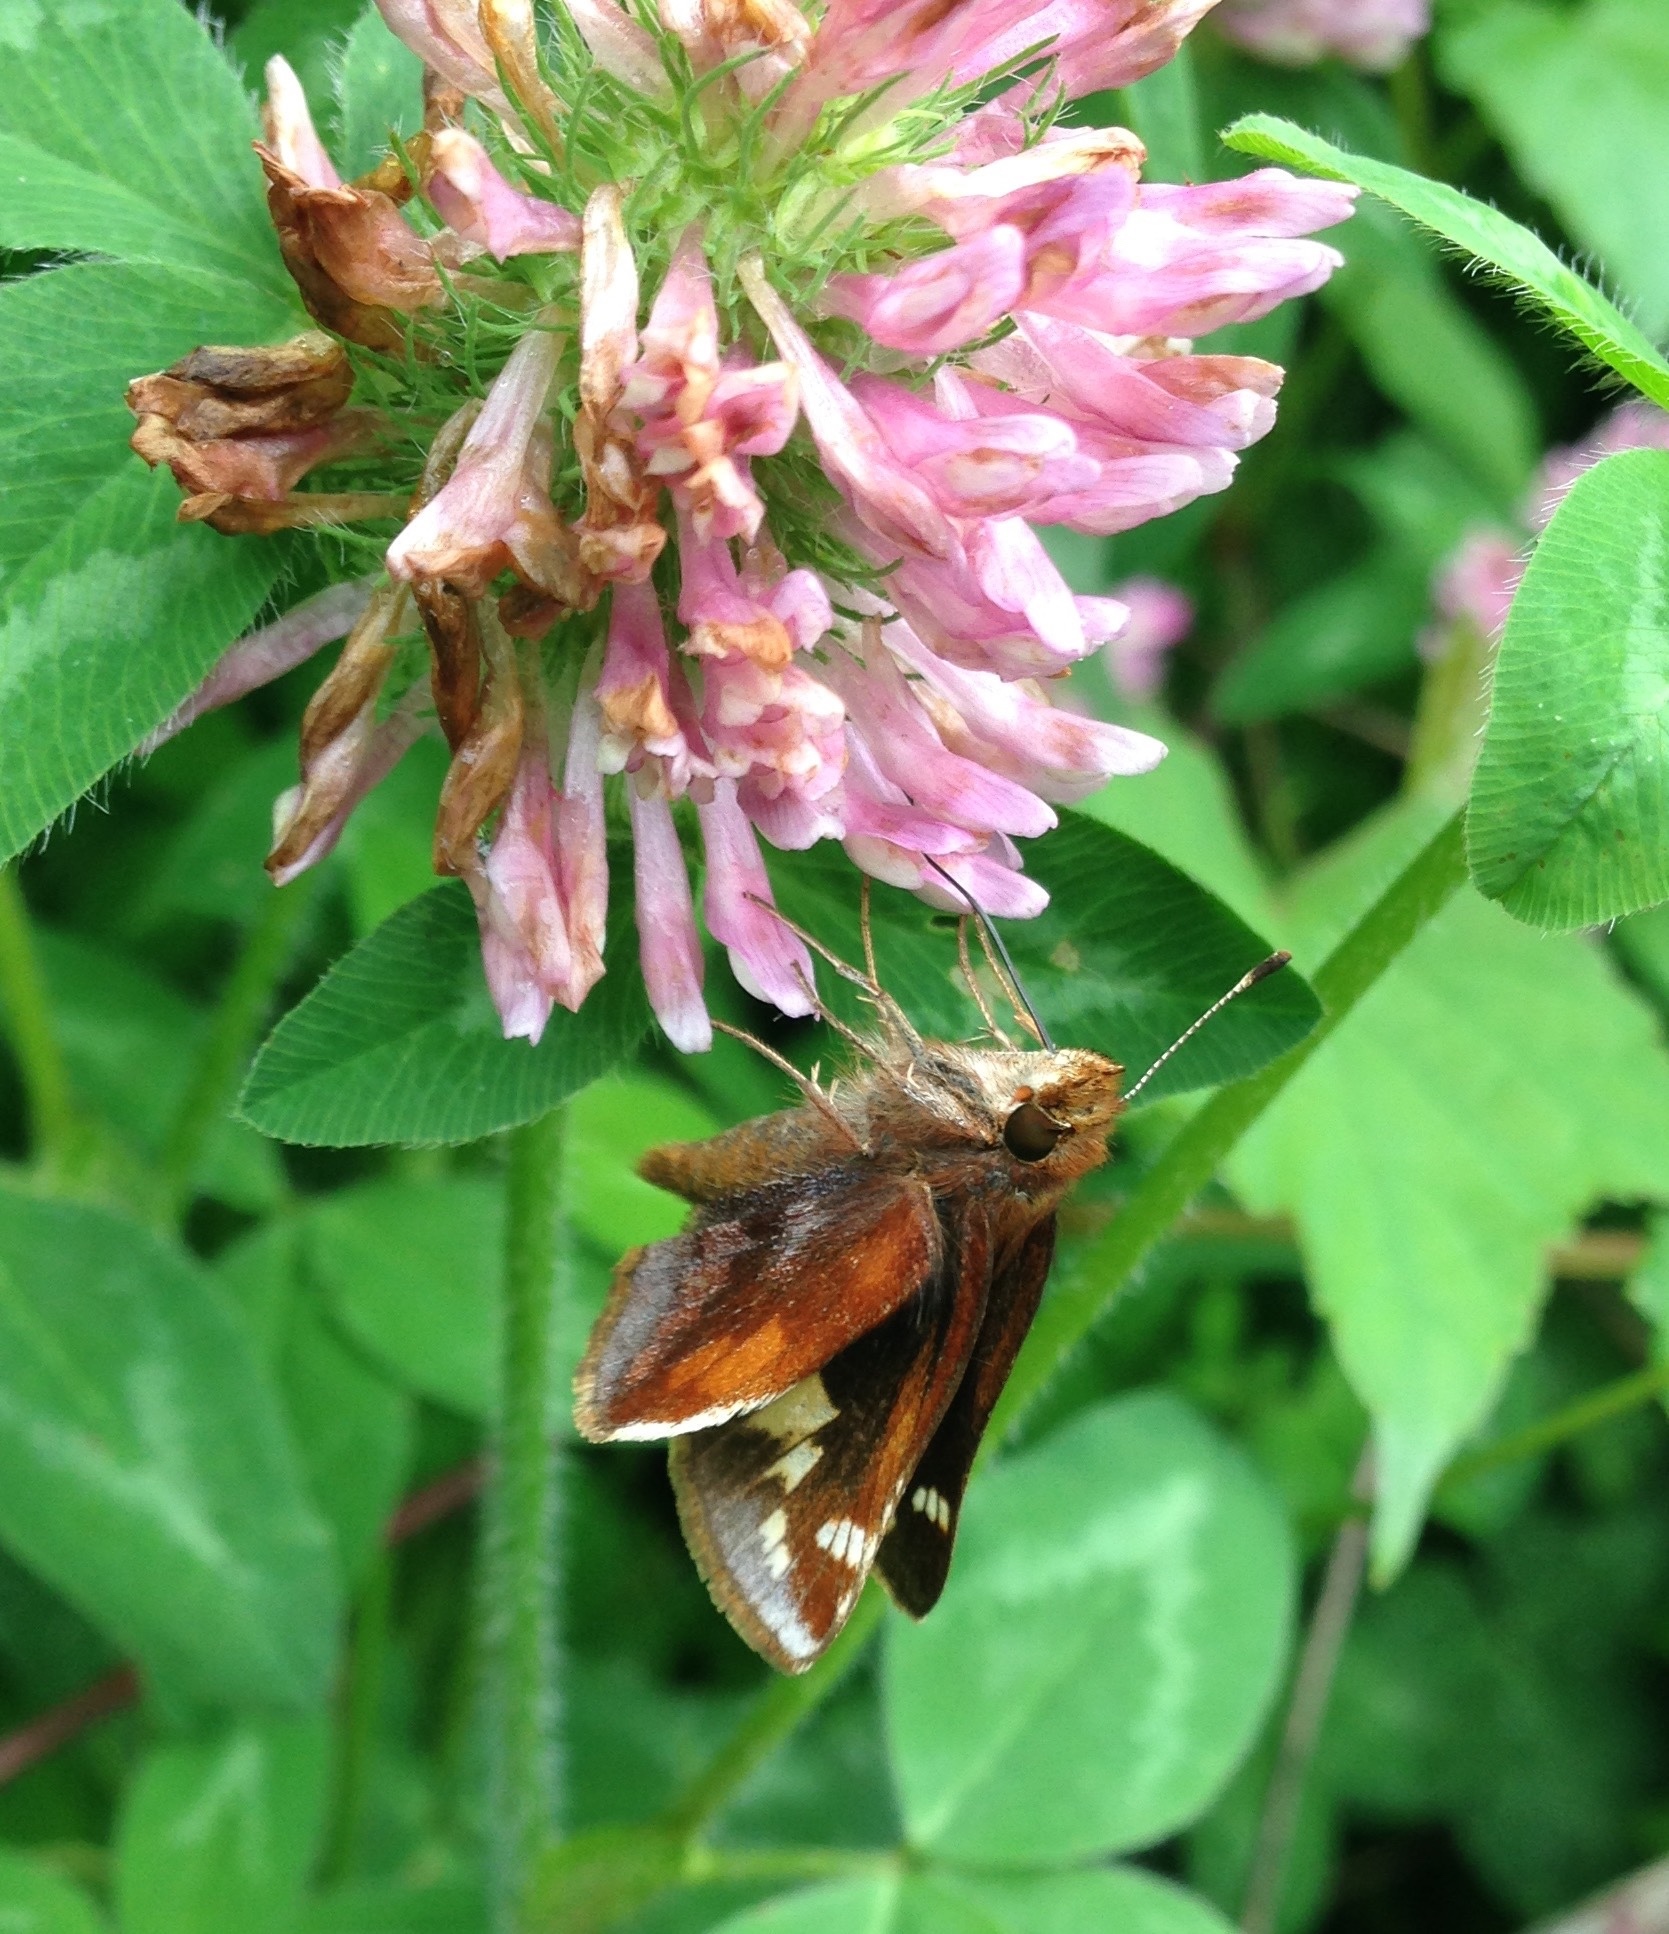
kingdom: Animalia
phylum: Arthropoda
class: Insecta
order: Lepidoptera
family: Hesperiidae
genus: Lon
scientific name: Lon zabulon
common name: Zabulon skipper
